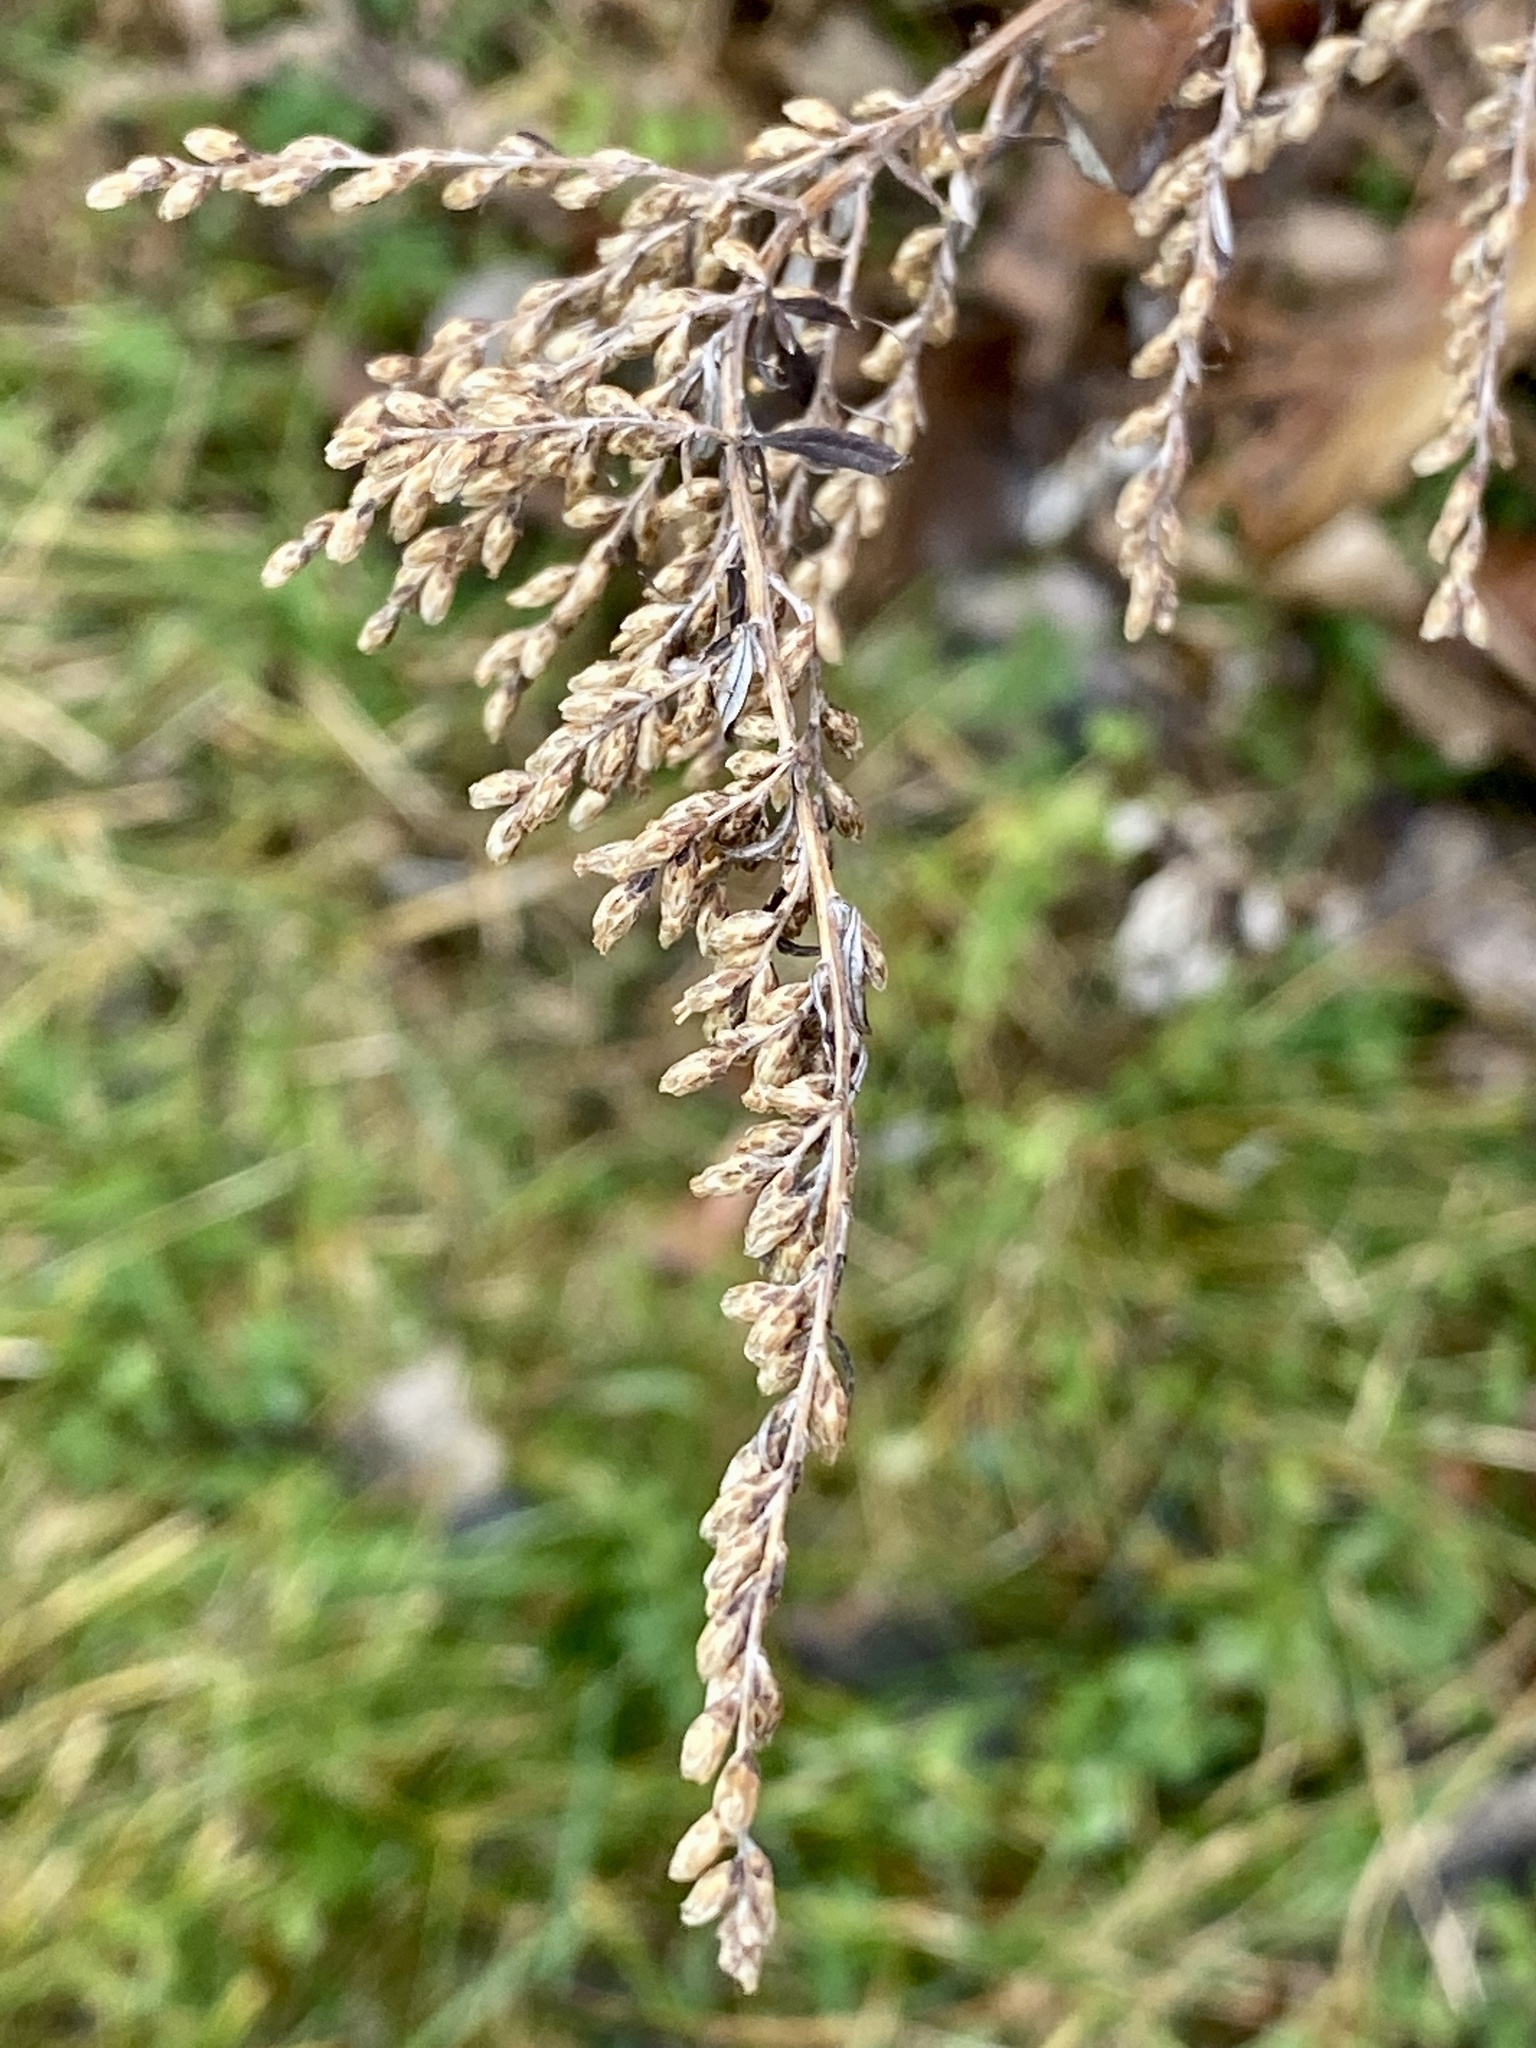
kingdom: Plantae
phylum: Tracheophyta
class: Magnoliopsida
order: Asterales
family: Asteraceae
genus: Artemisia
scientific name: Artemisia vulgaris
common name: Mugwort
